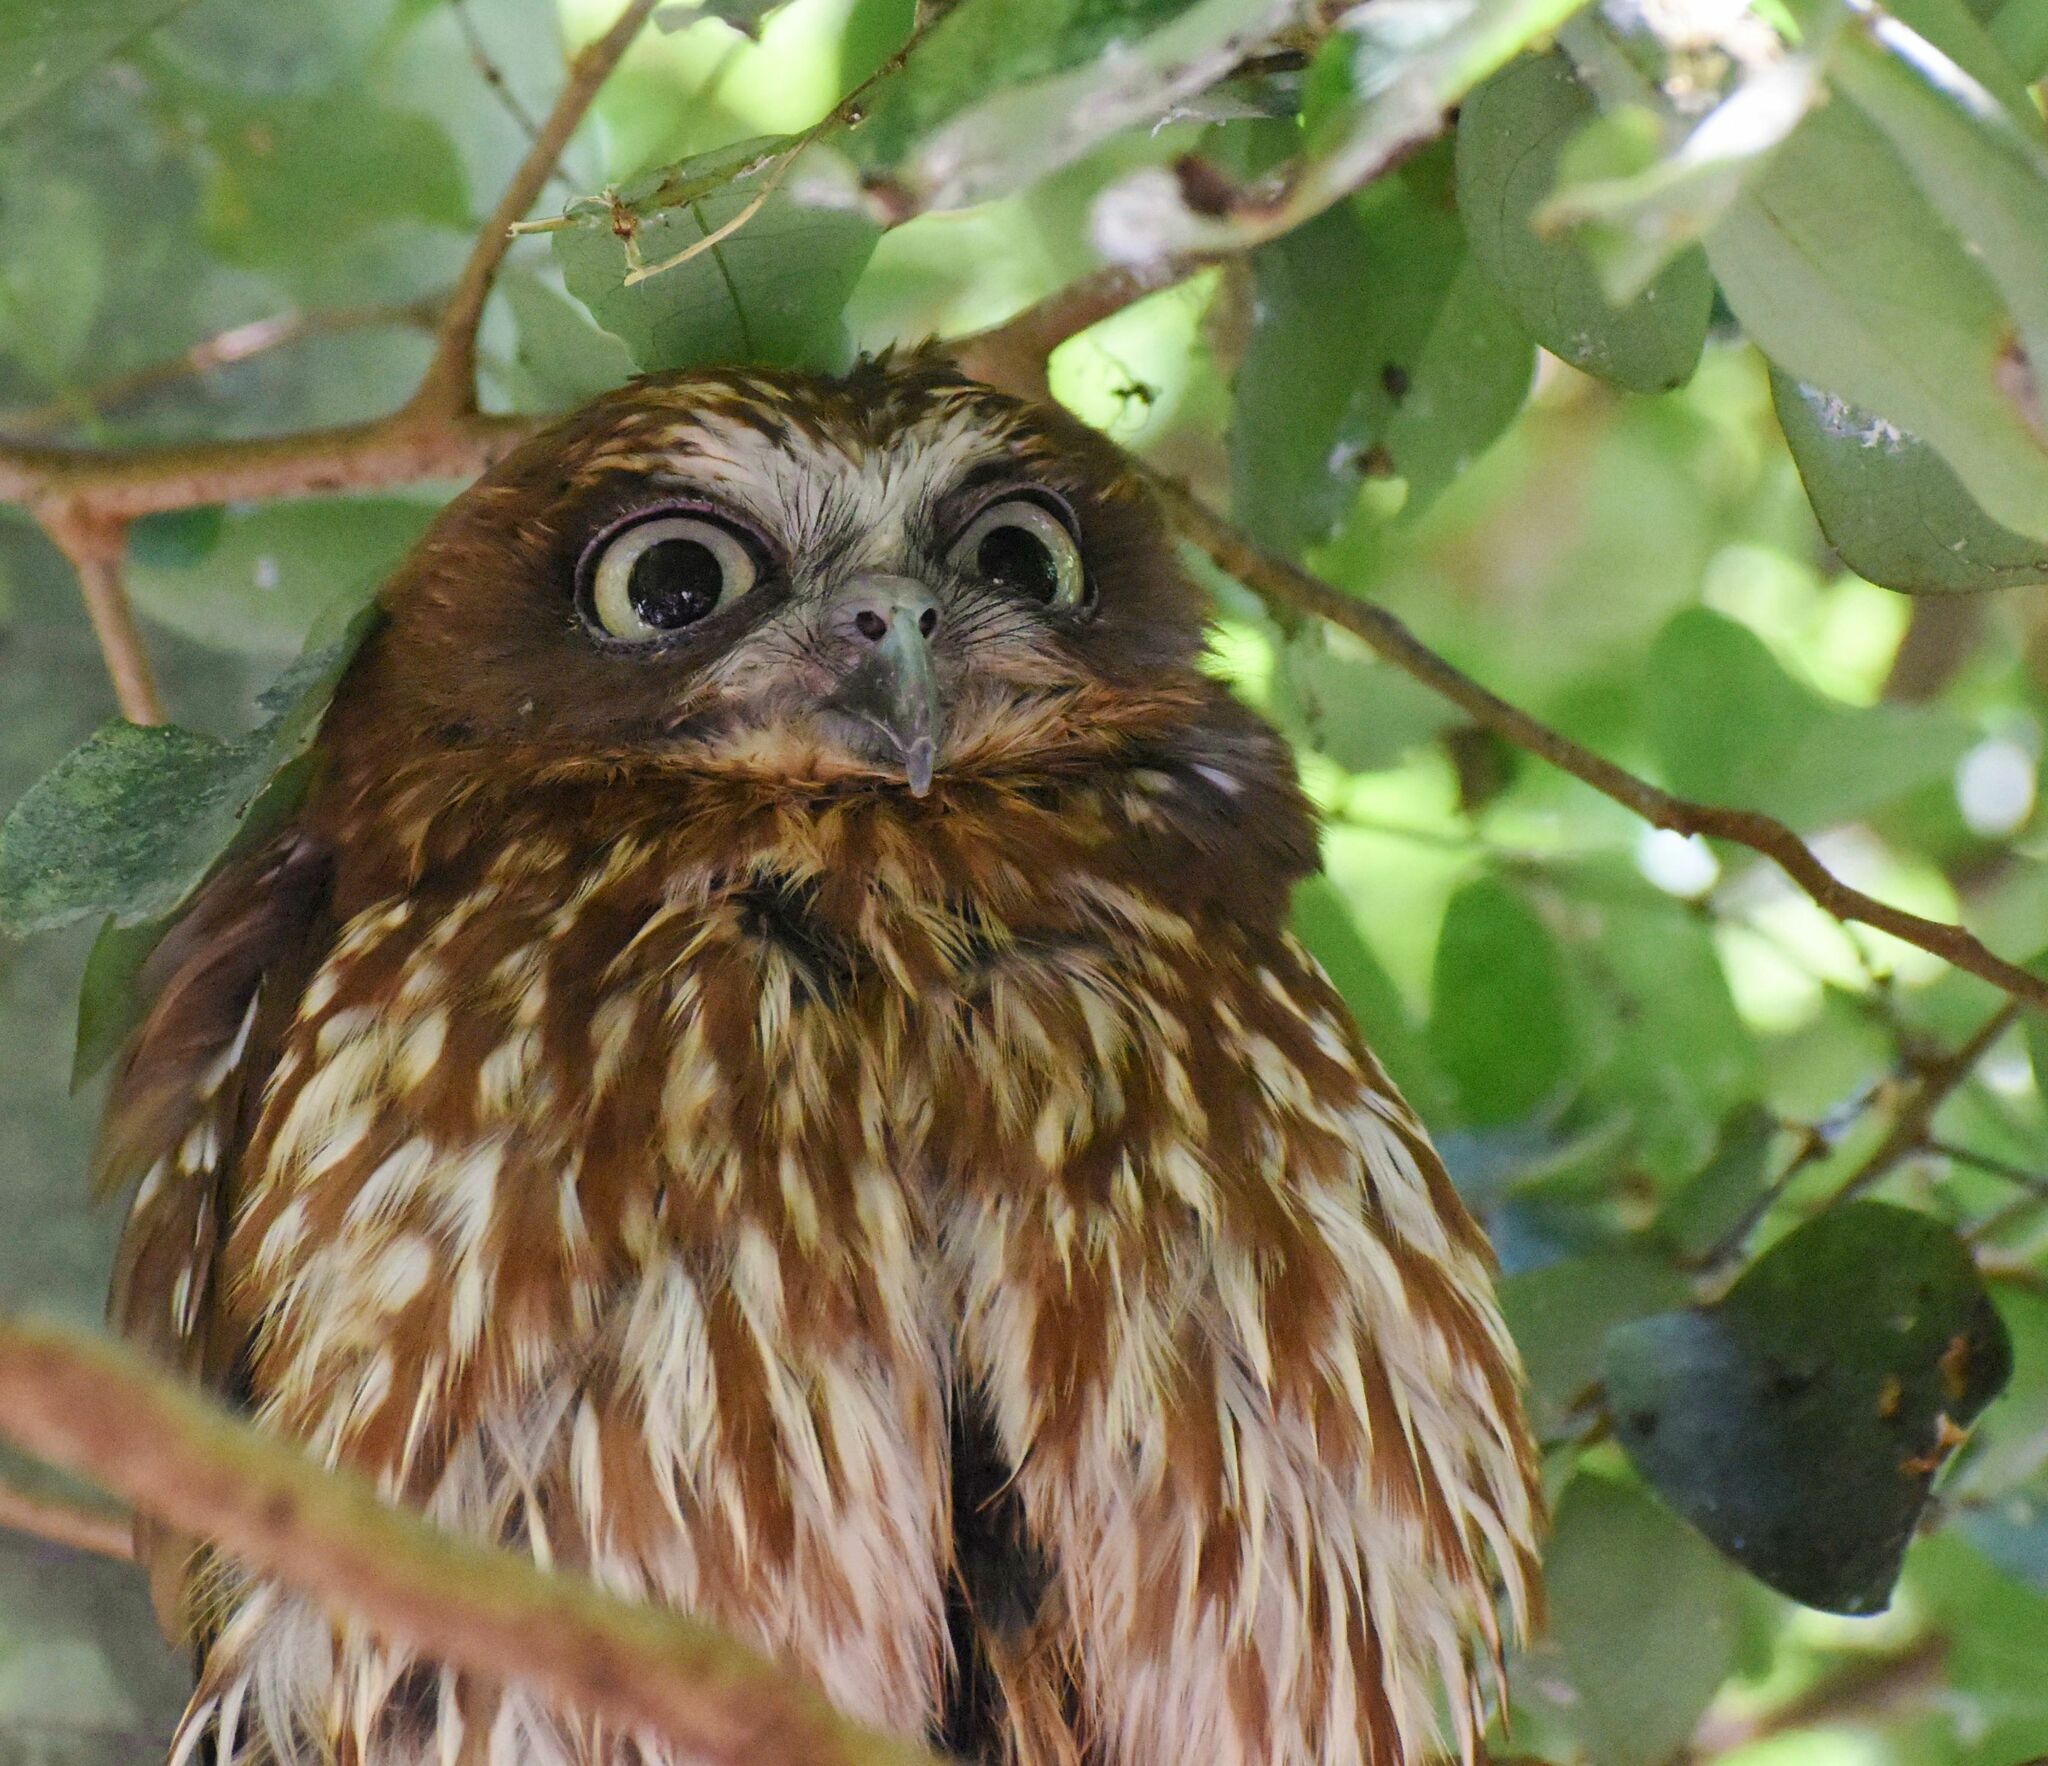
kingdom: Animalia
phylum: Chordata
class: Aves
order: Strigiformes
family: Strigidae
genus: Ninox
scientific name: Ninox boobook
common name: Southern boobook
